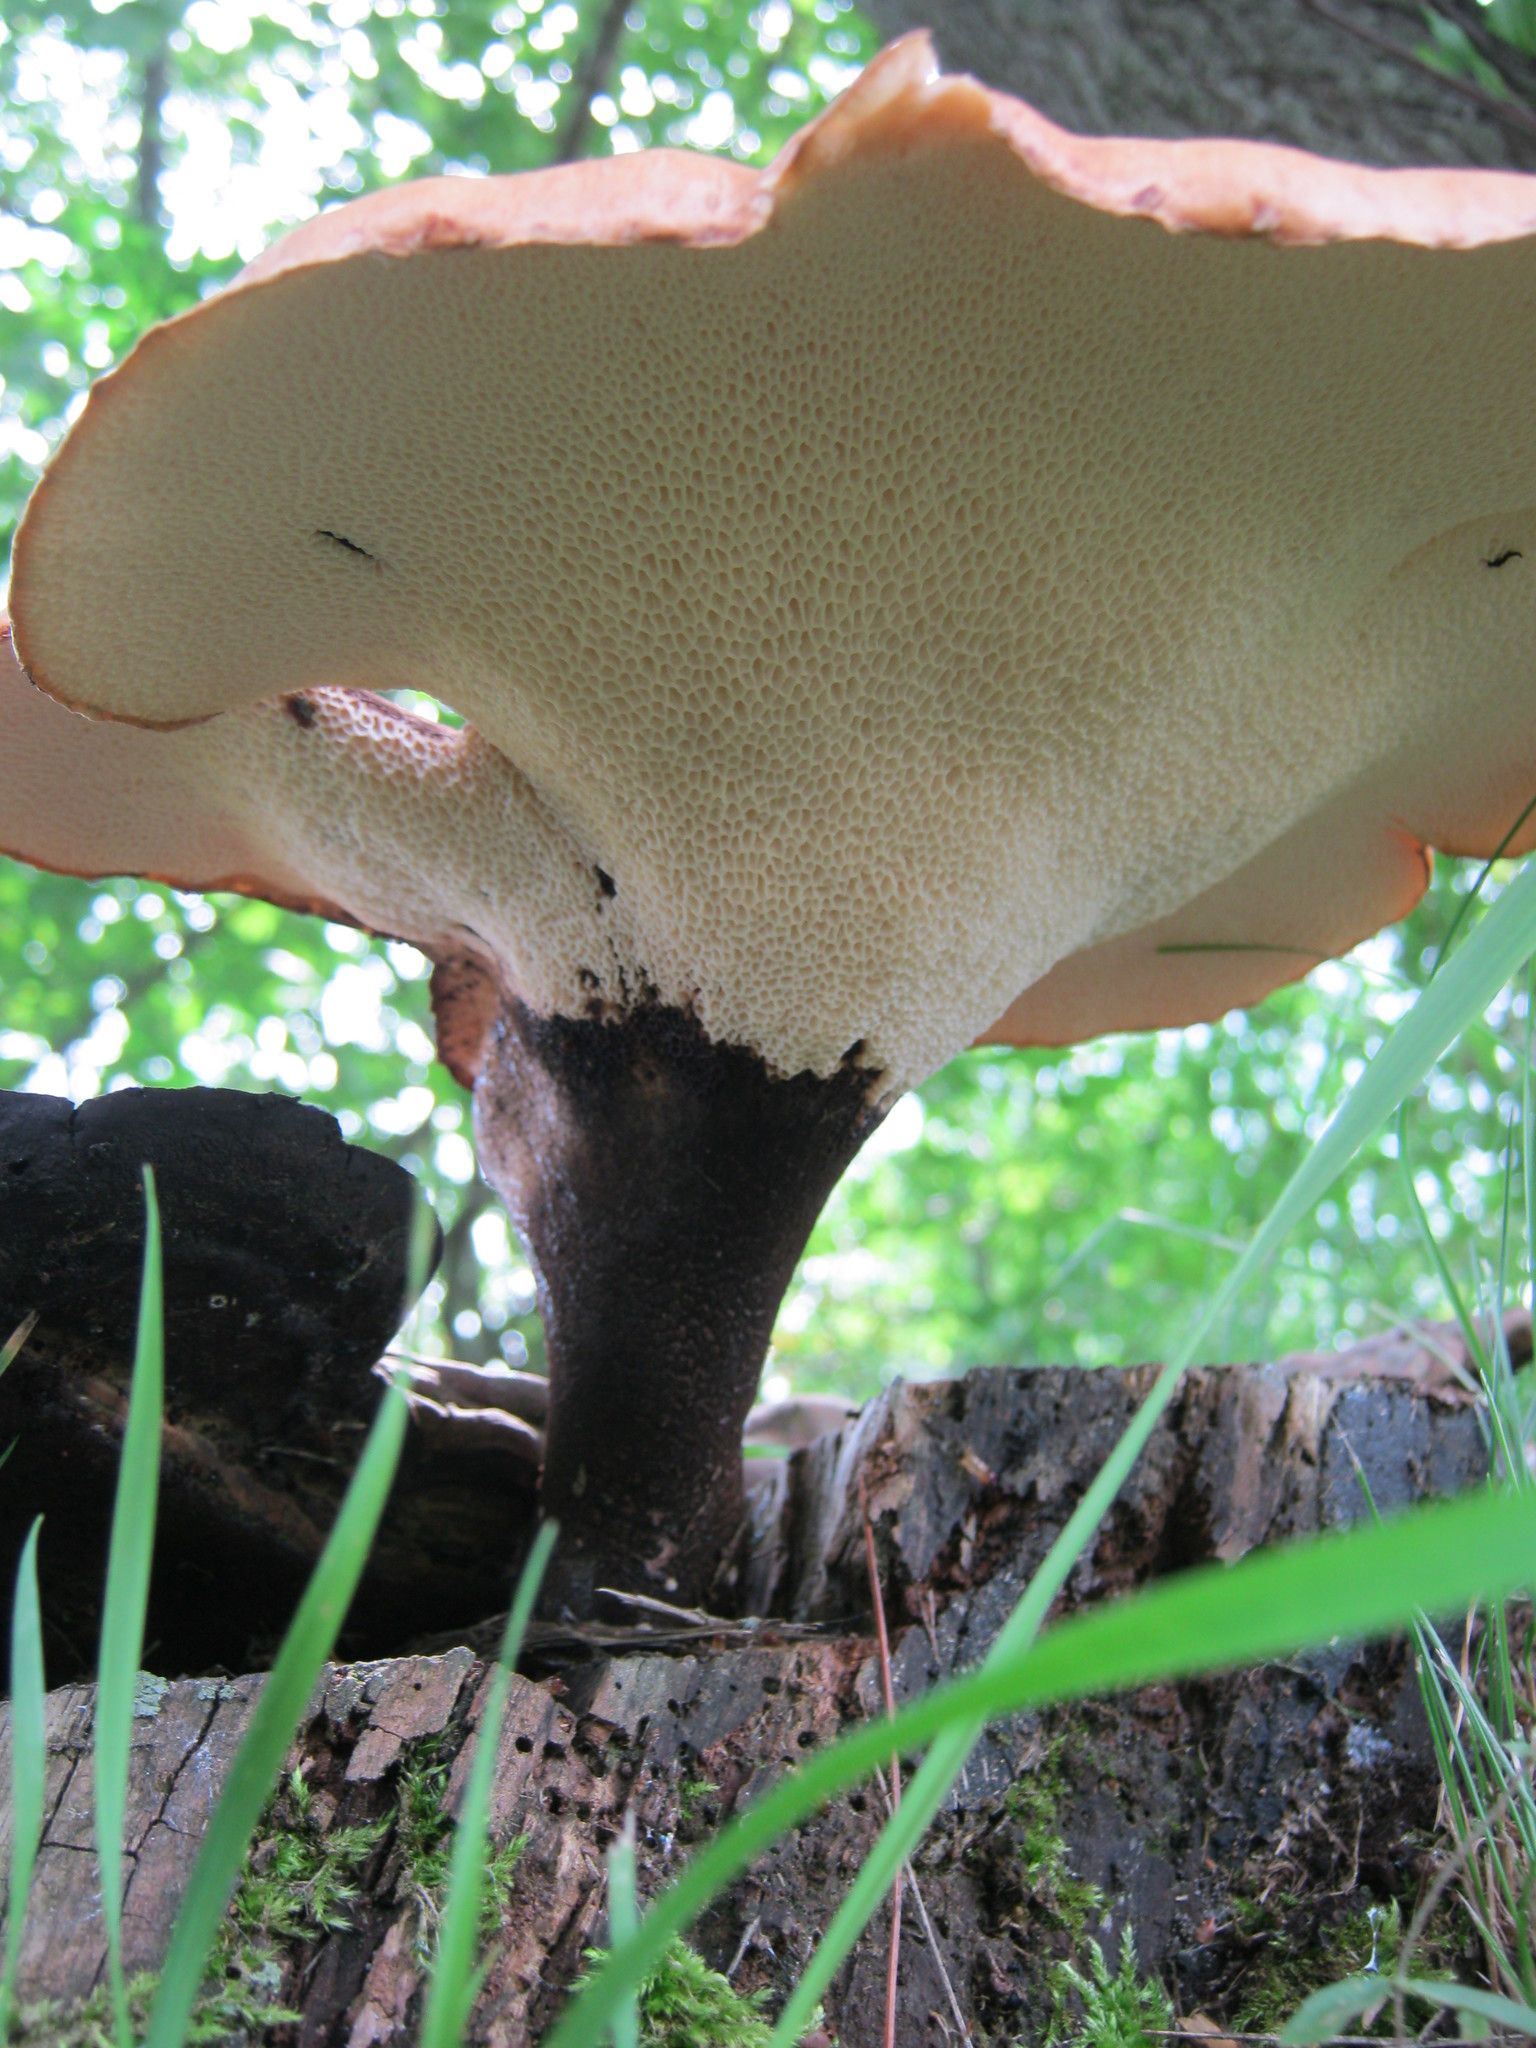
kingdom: Fungi
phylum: Basidiomycota
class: Agaricomycetes
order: Polyporales
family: Polyporaceae
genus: Cerioporus
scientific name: Cerioporus squamosus
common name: Dryad's saddle
